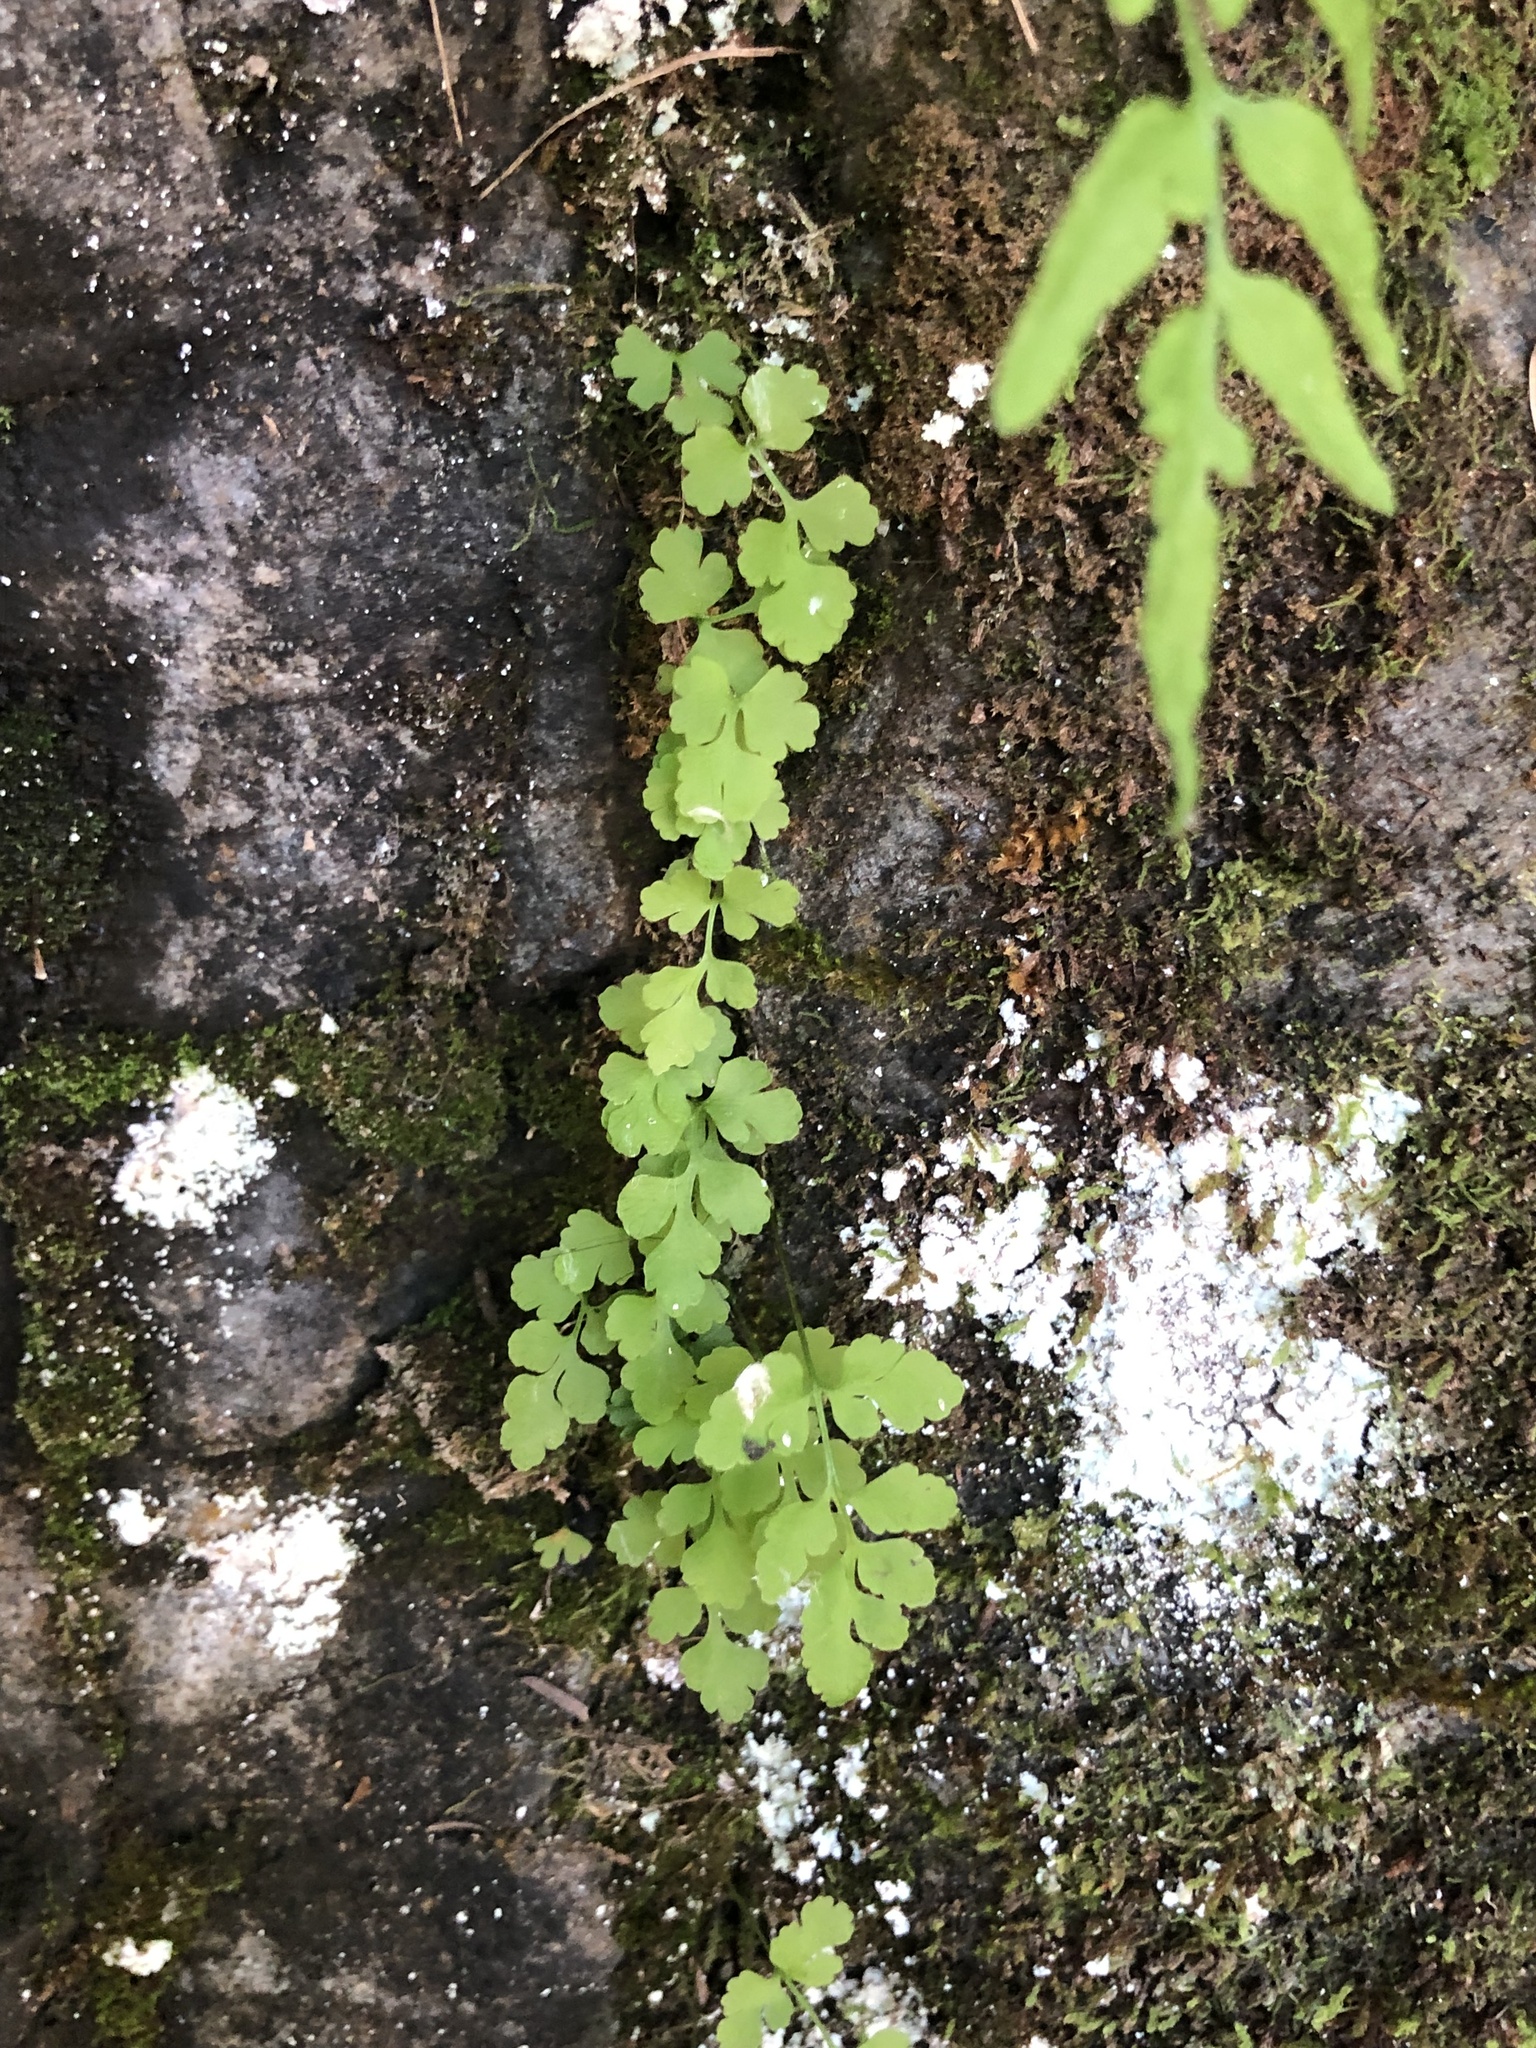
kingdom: Plantae
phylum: Tracheophyta
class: Polypodiopsida
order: Polypodiales
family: Pteridaceae
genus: Cryptogramma
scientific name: Cryptogramma stelleri
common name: Cliff-brake
